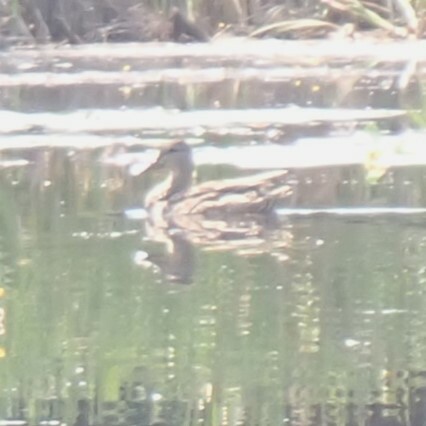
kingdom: Animalia
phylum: Chordata
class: Aves
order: Anseriformes
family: Anatidae
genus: Anas
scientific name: Anas platyrhynchos
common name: Mallard
